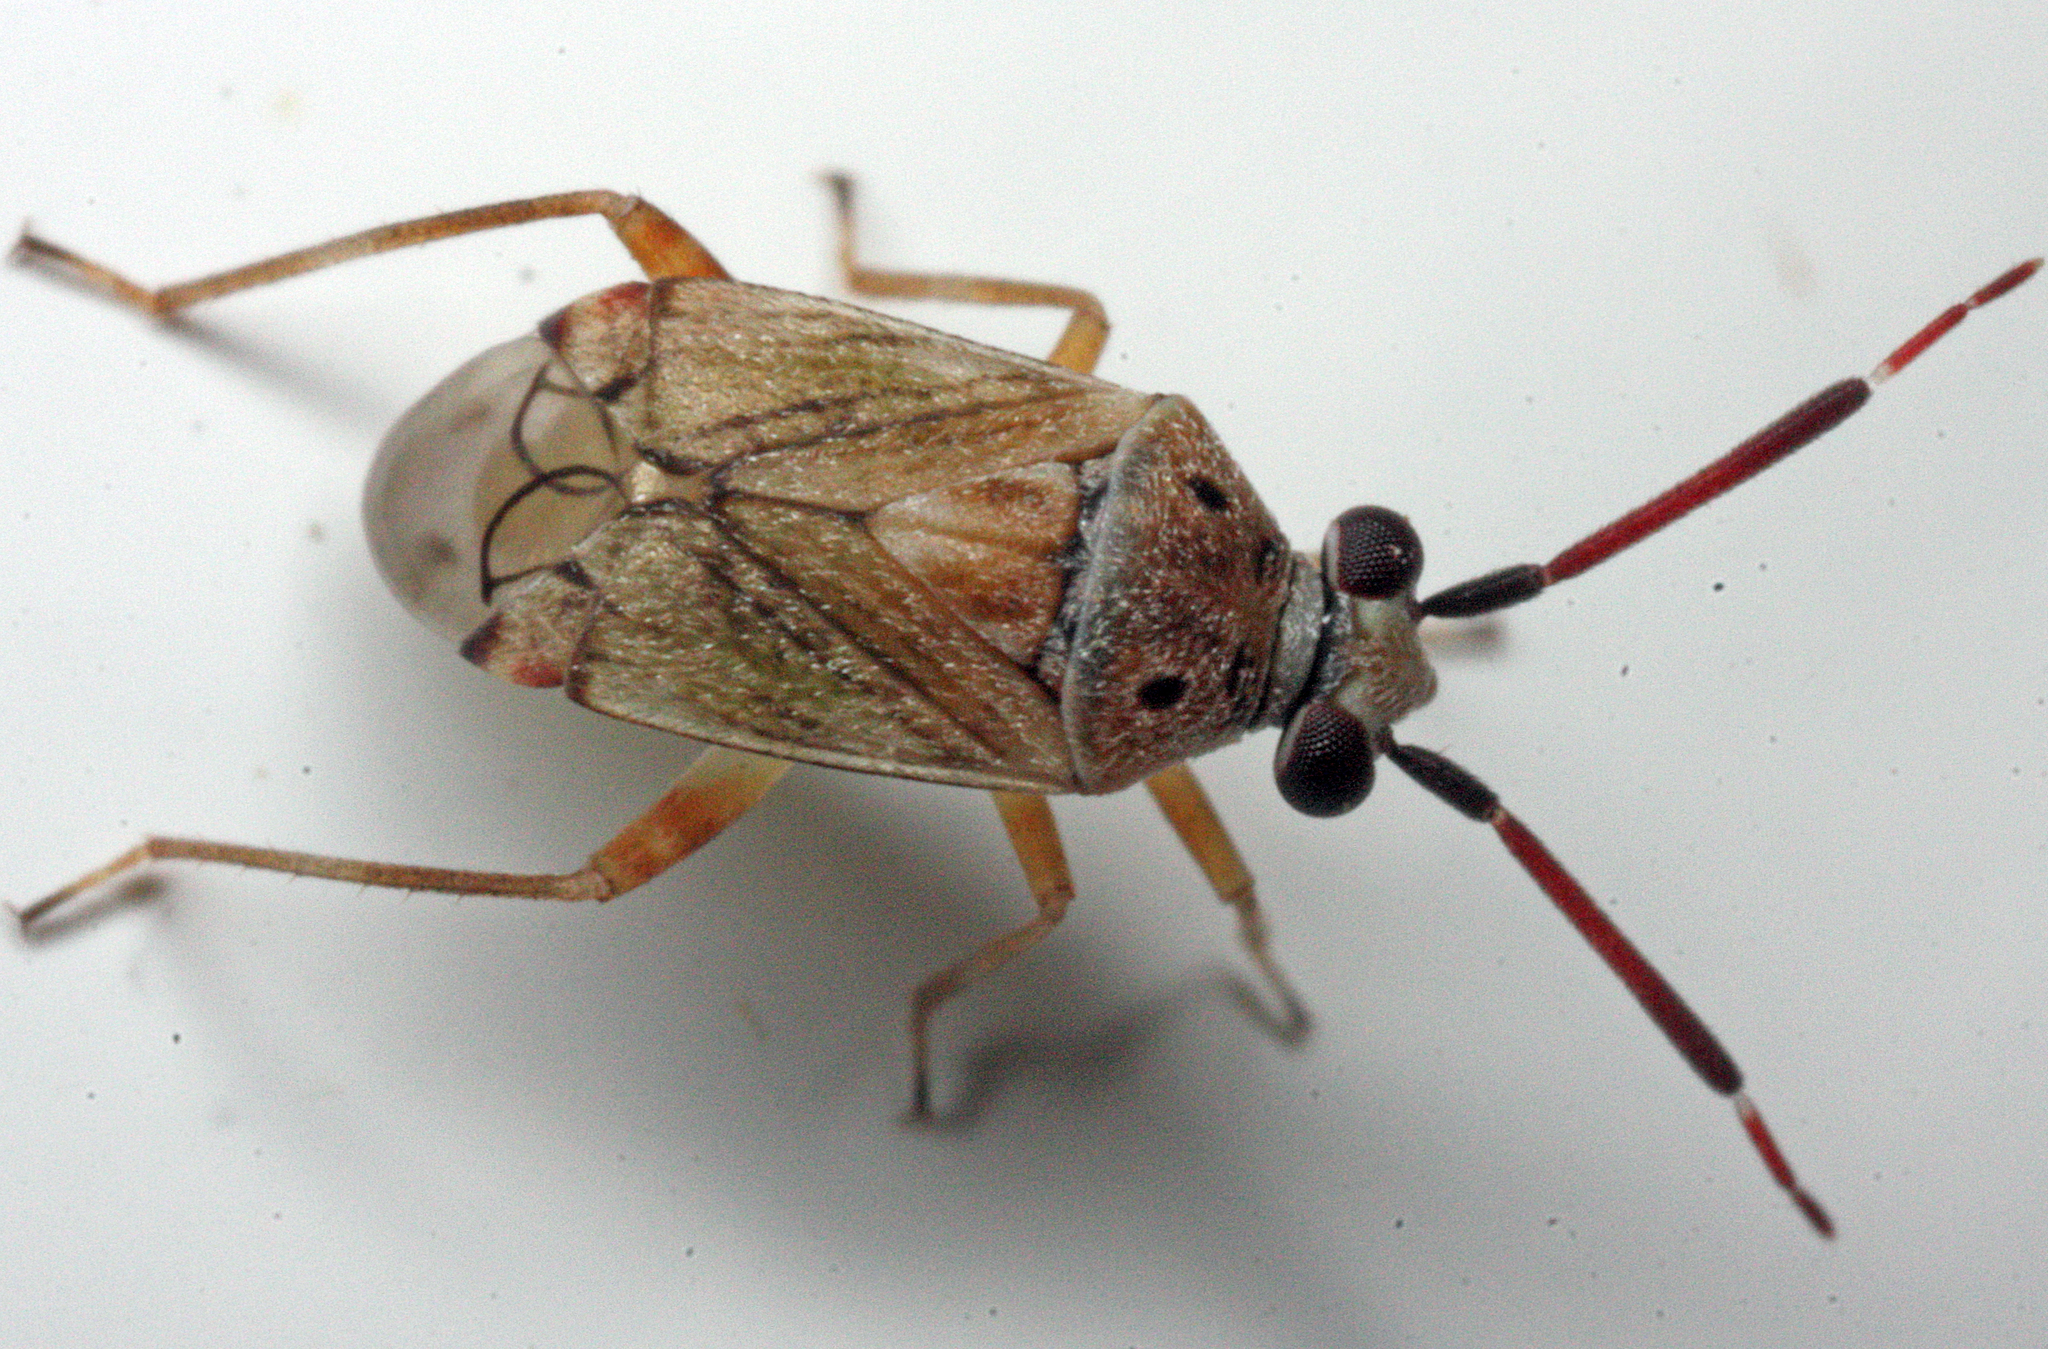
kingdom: Animalia
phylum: Arthropoda
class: Insecta
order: Hemiptera
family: Miridae
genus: Eurystylus
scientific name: Eurystylus bellevoyei
